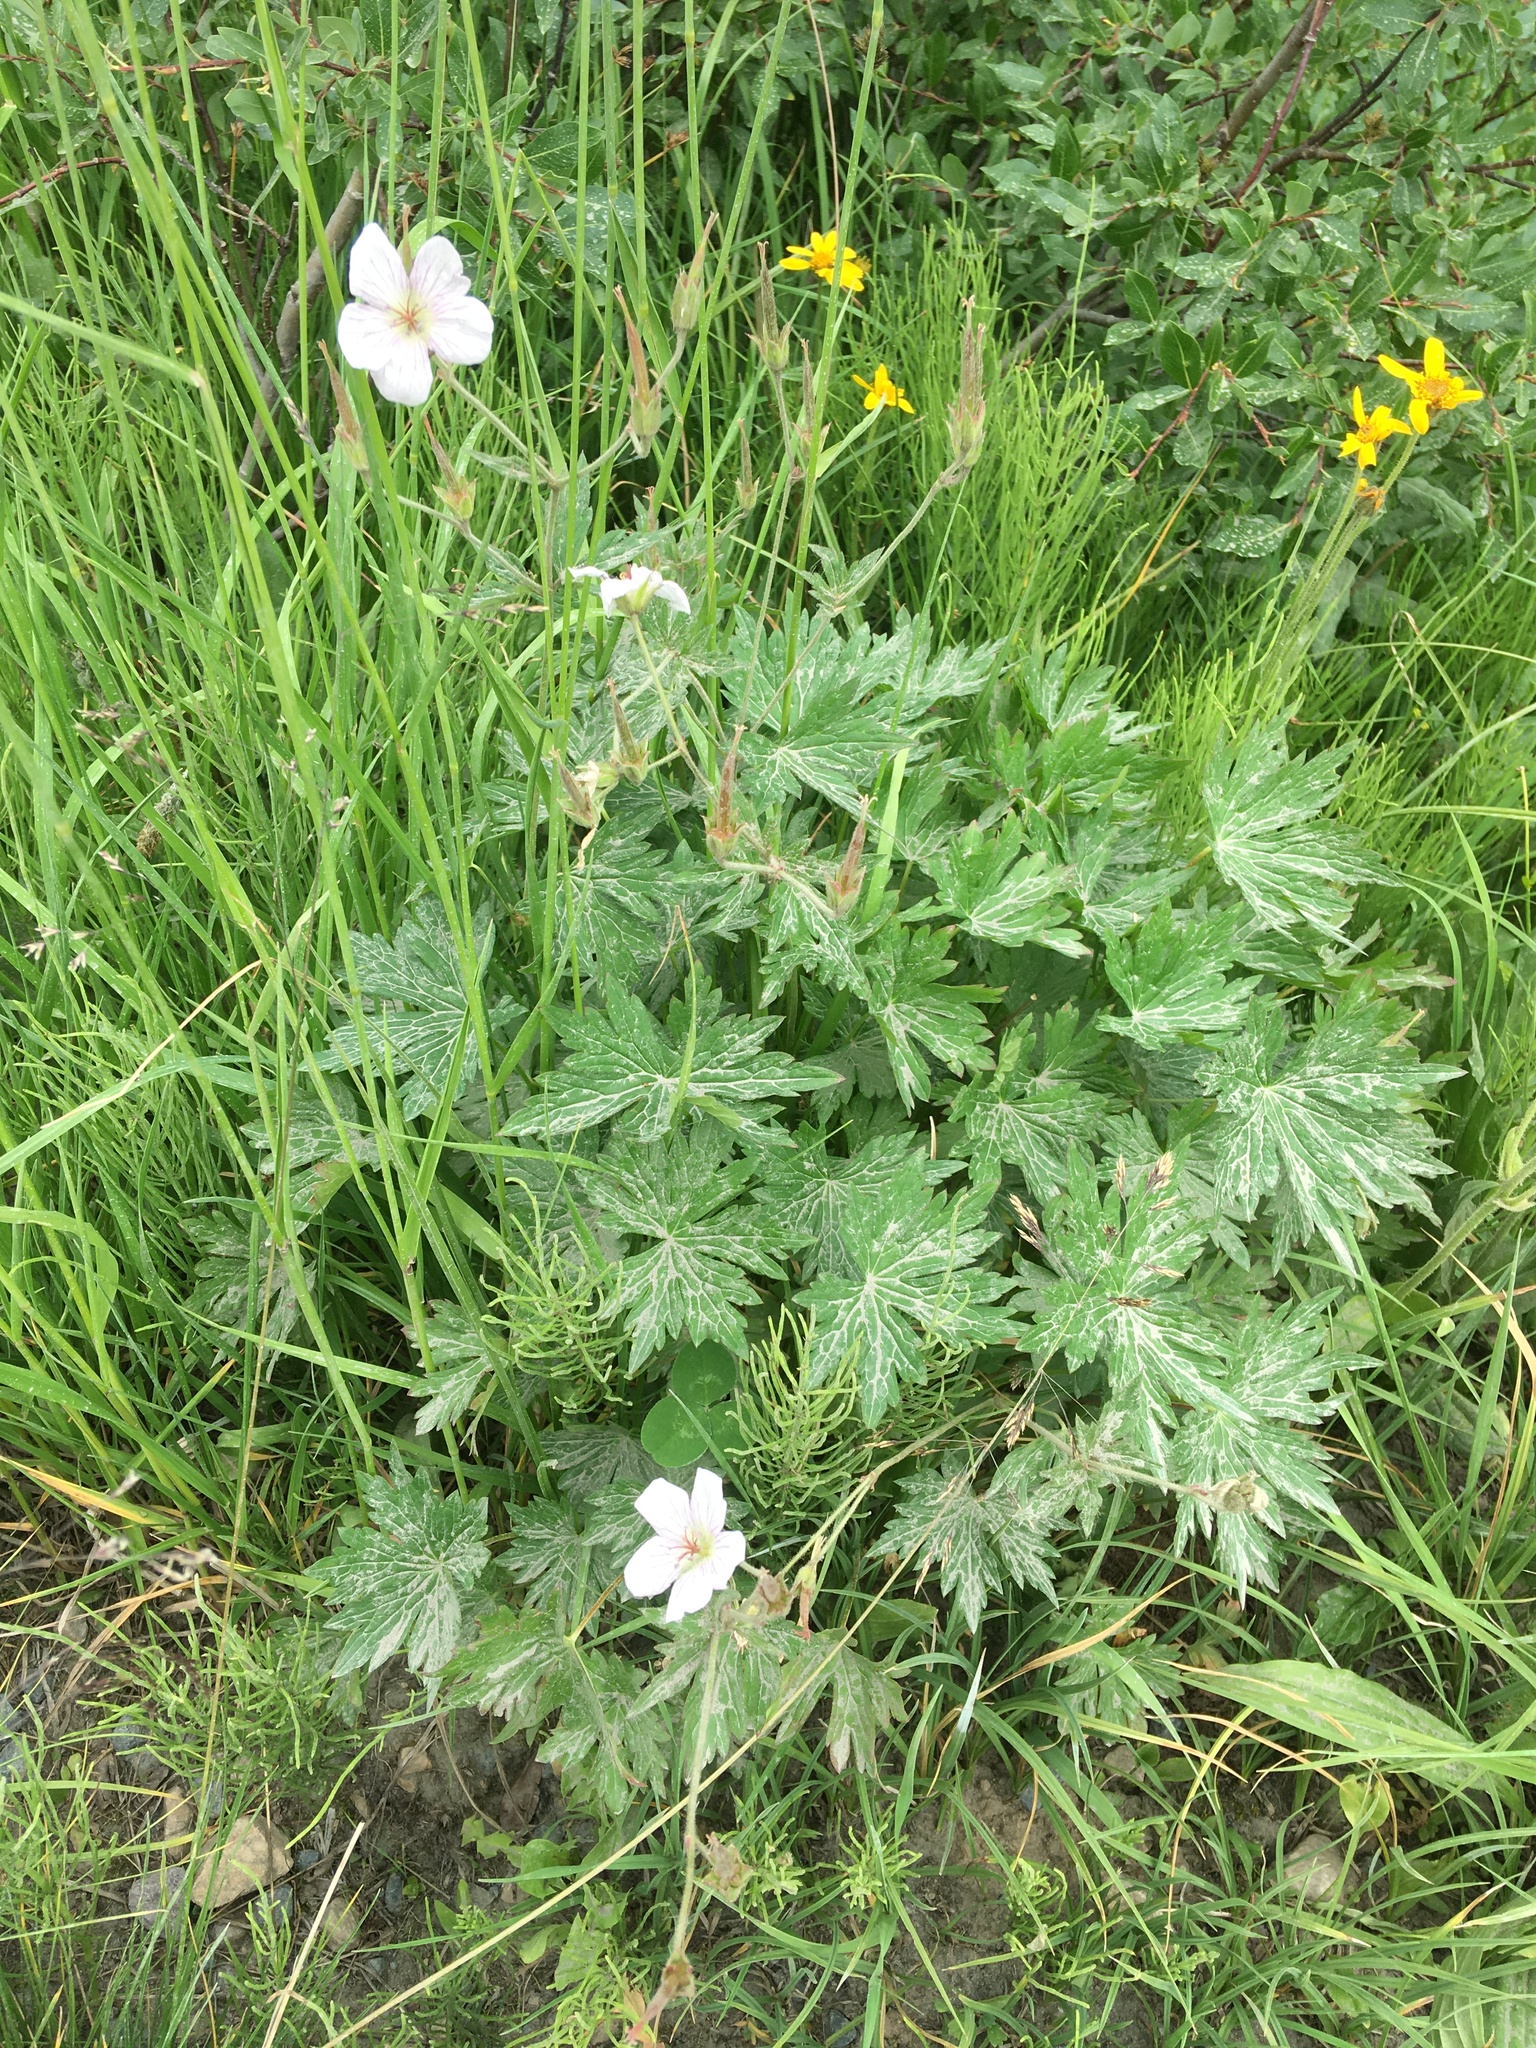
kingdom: Plantae
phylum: Tracheophyta
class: Magnoliopsida
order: Geraniales
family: Geraniaceae
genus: Geranium
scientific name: Geranium richardsonii
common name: Richardson's crane's-bill
